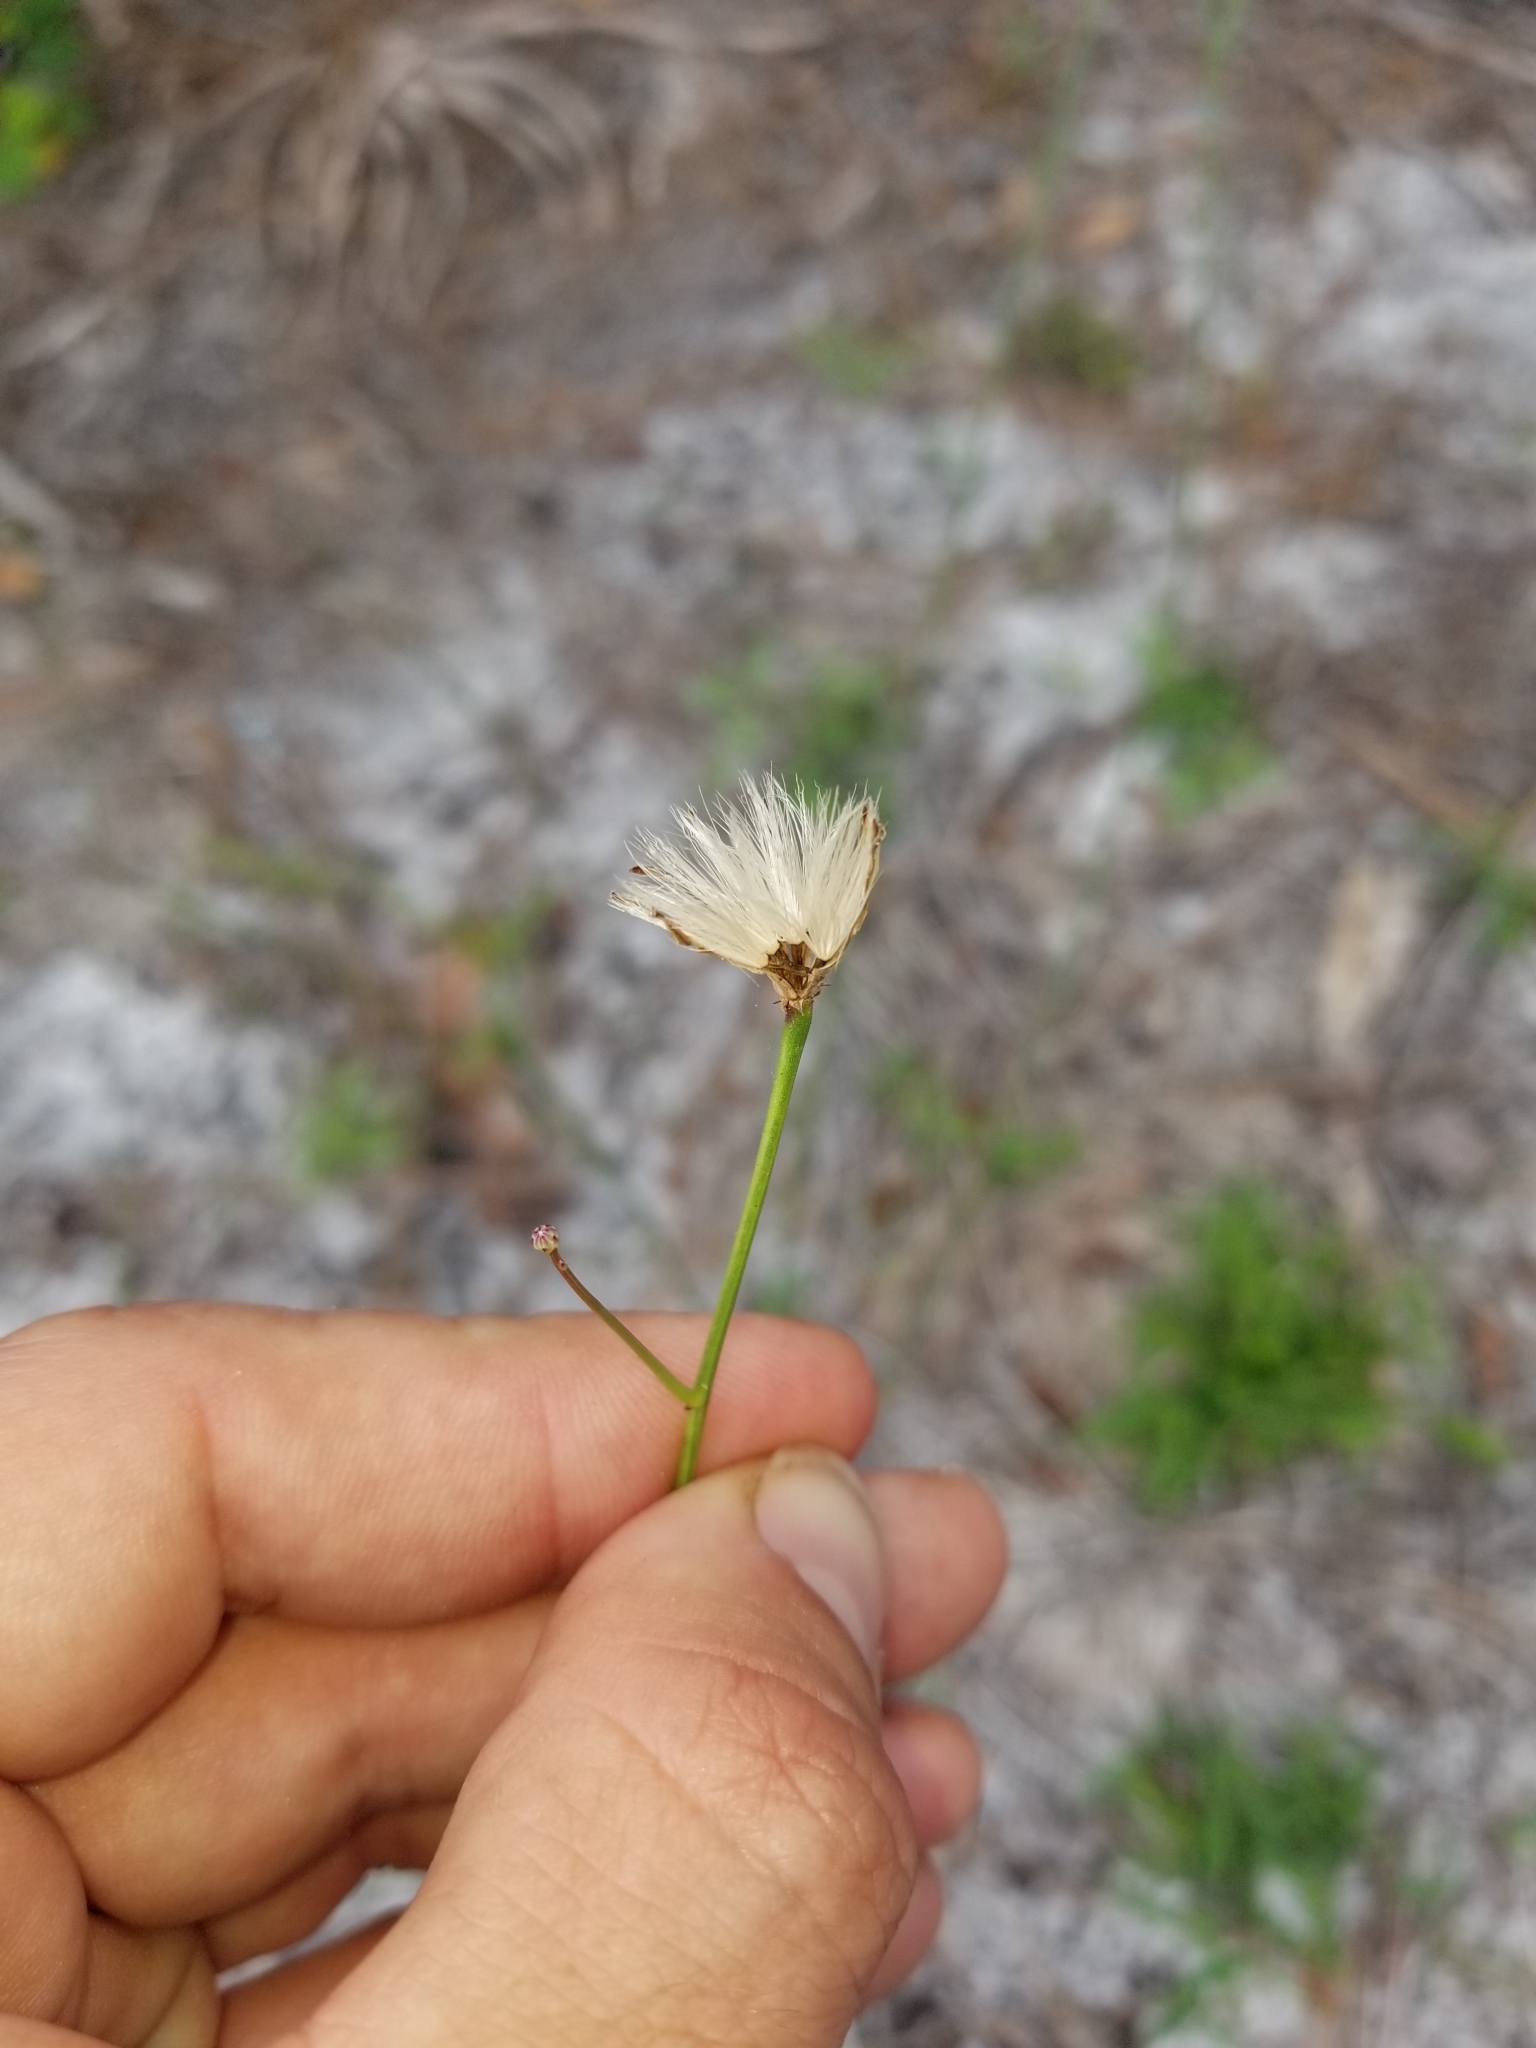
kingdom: Plantae
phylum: Tracheophyta
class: Magnoliopsida
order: Asterales
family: Asteraceae
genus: Lygodesmia
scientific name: Lygodesmia aphylla
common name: Rose-rush
